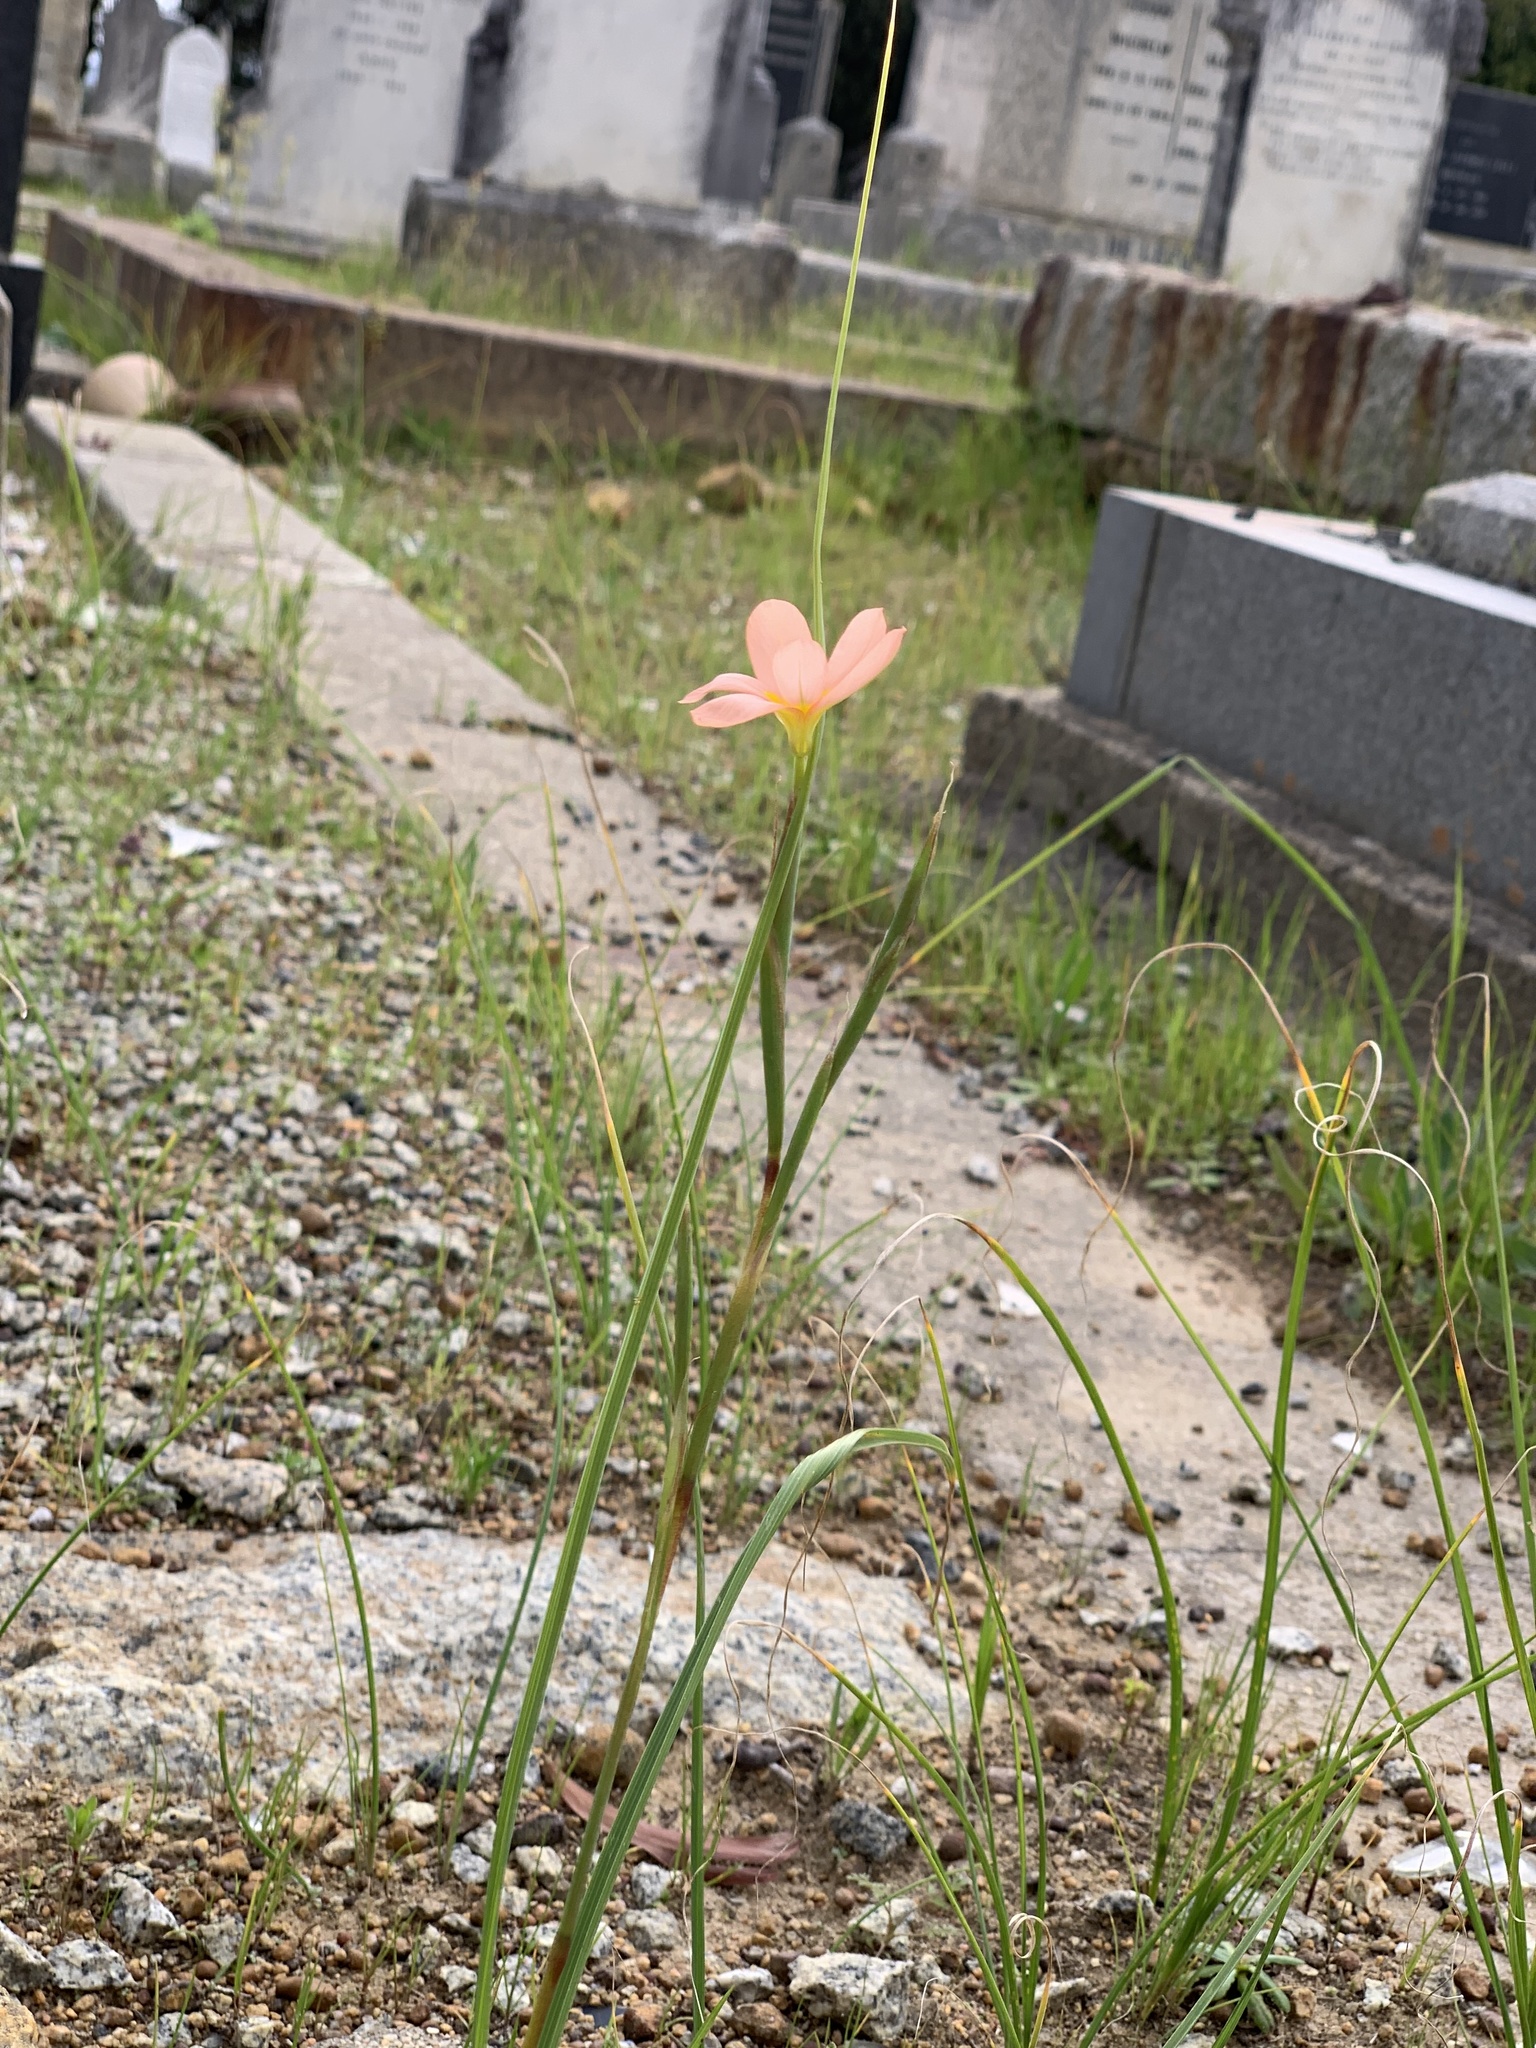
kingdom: Plantae
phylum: Tracheophyta
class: Liliopsida
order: Asparagales
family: Iridaceae
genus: Moraea
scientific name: Moraea miniata
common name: Two-leaf cape-tulip
